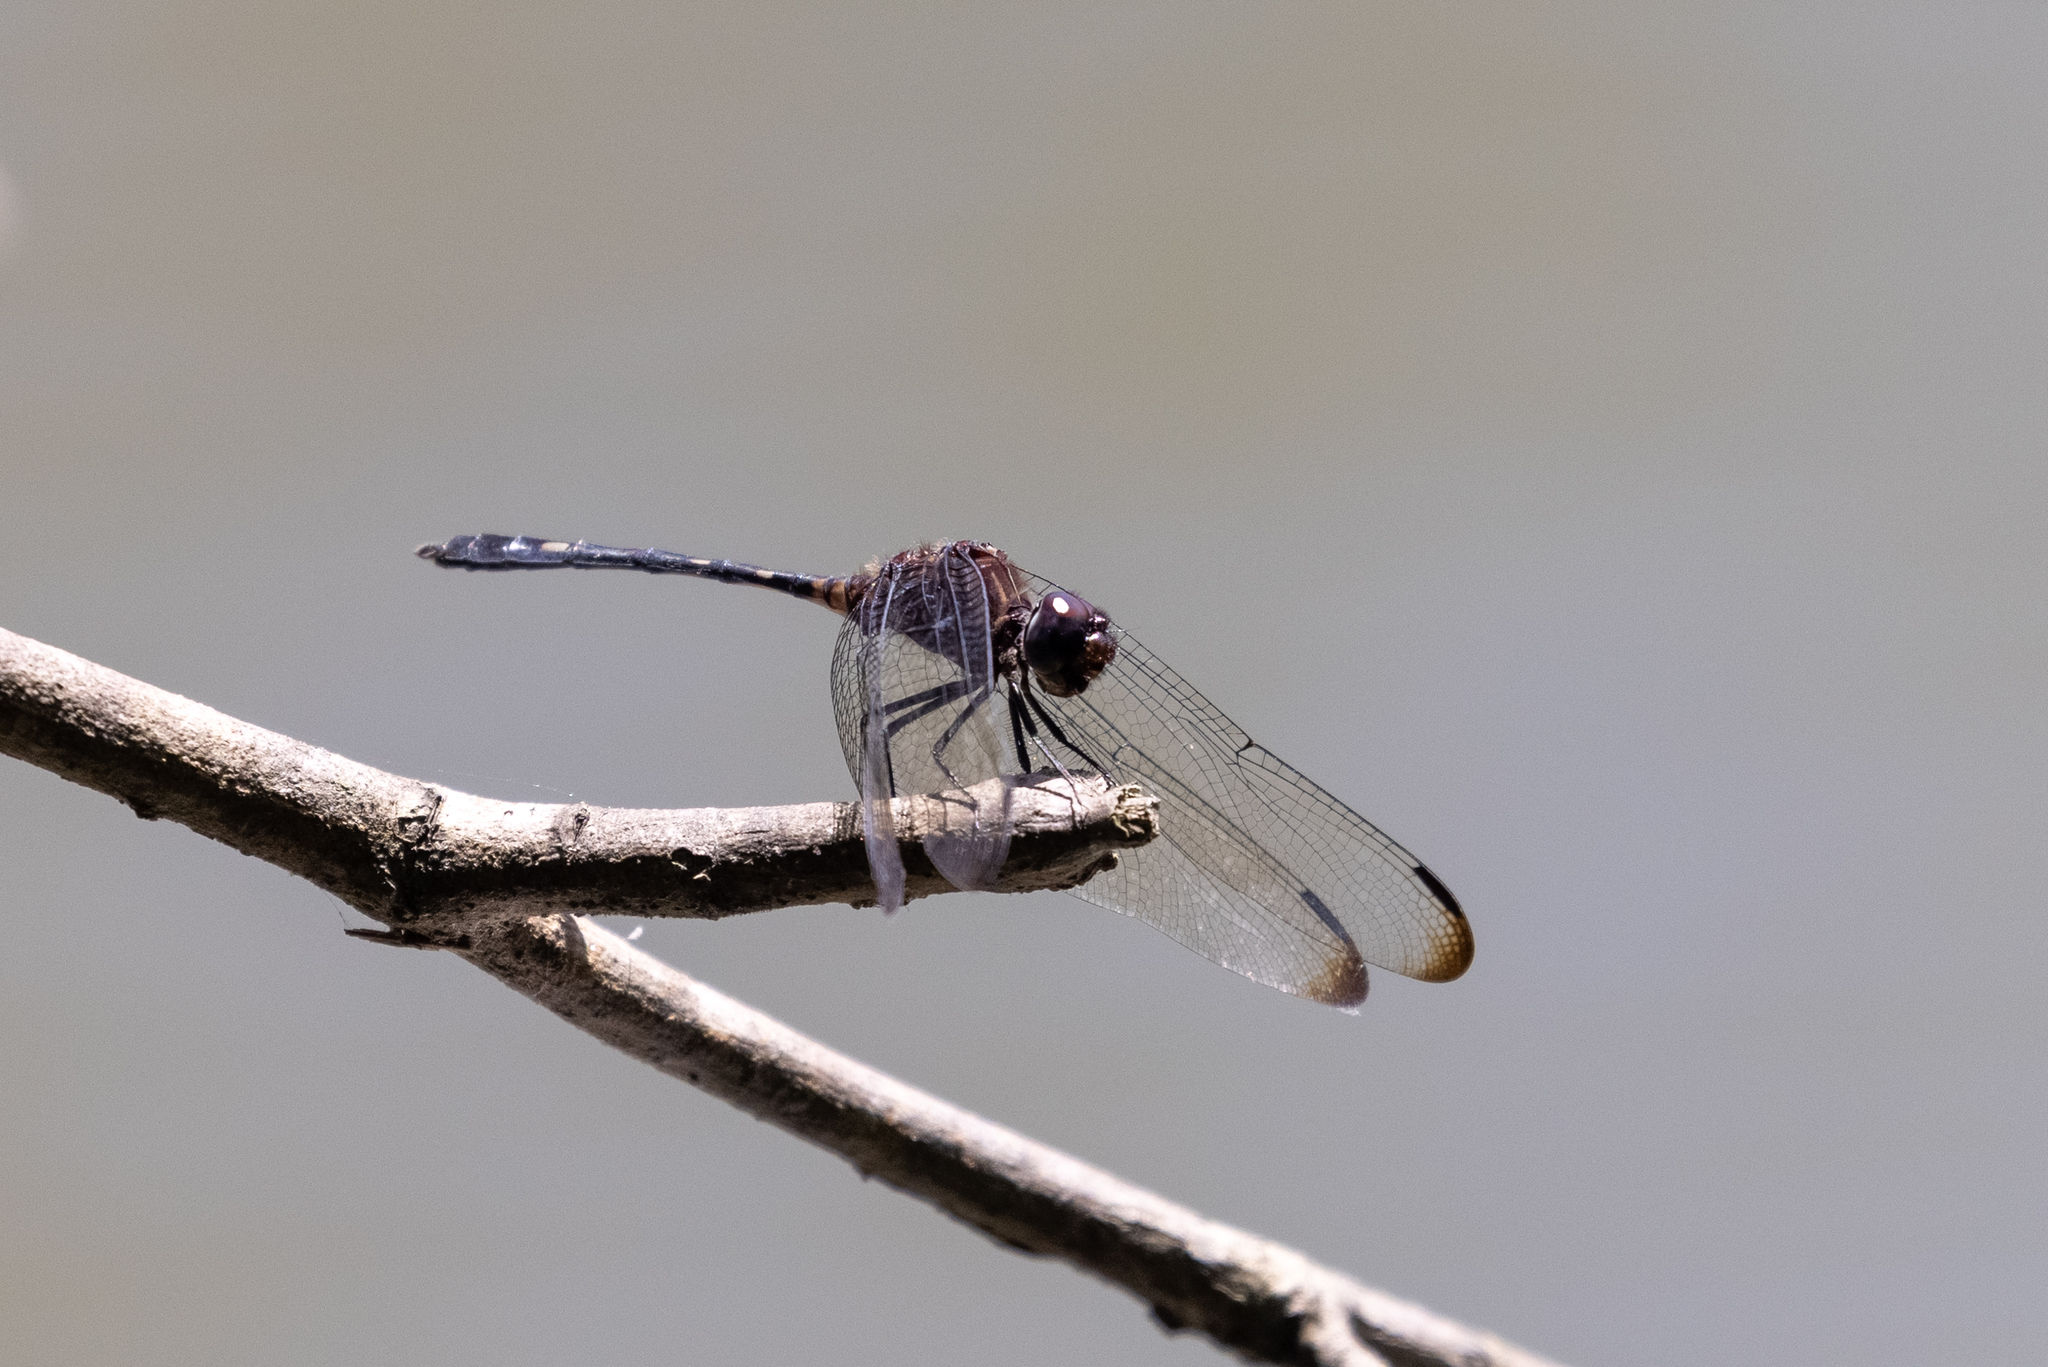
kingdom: Animalia
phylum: Arthropoda
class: Insecta
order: Odonata
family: Libellulidae
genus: Dythemis
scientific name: Dythemis velox
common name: Swift setwing
